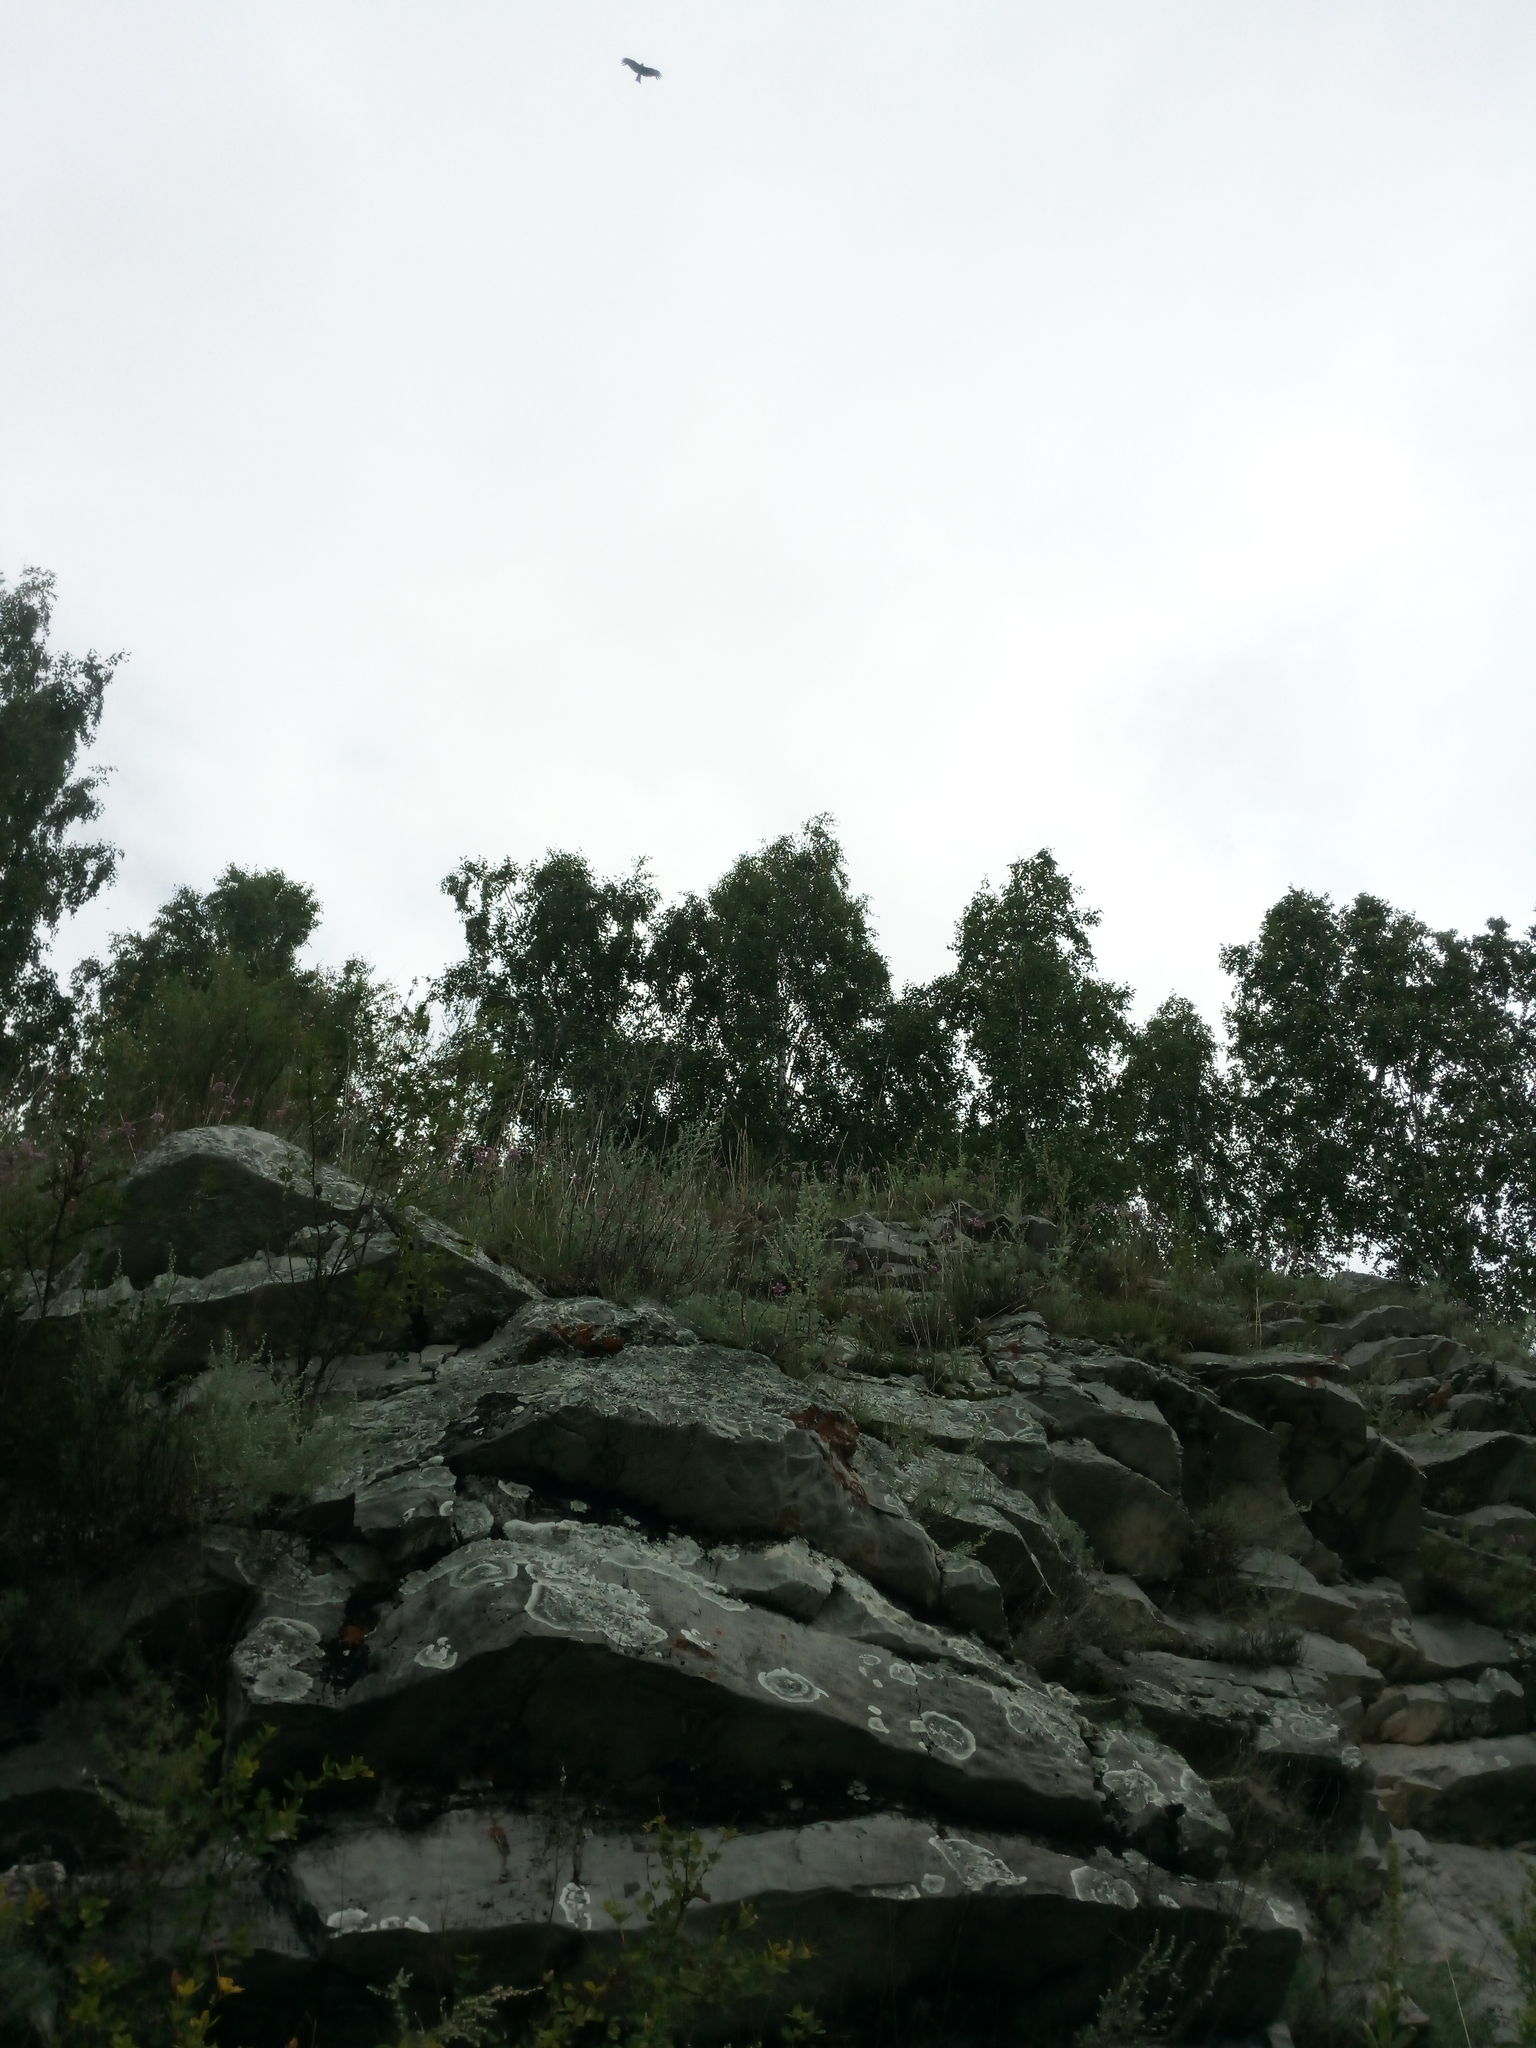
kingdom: Animalia
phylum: Chordata
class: Aves
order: Accipitriformes
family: Accipitridae
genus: Milvus
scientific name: Milvus migrans
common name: Black kite
